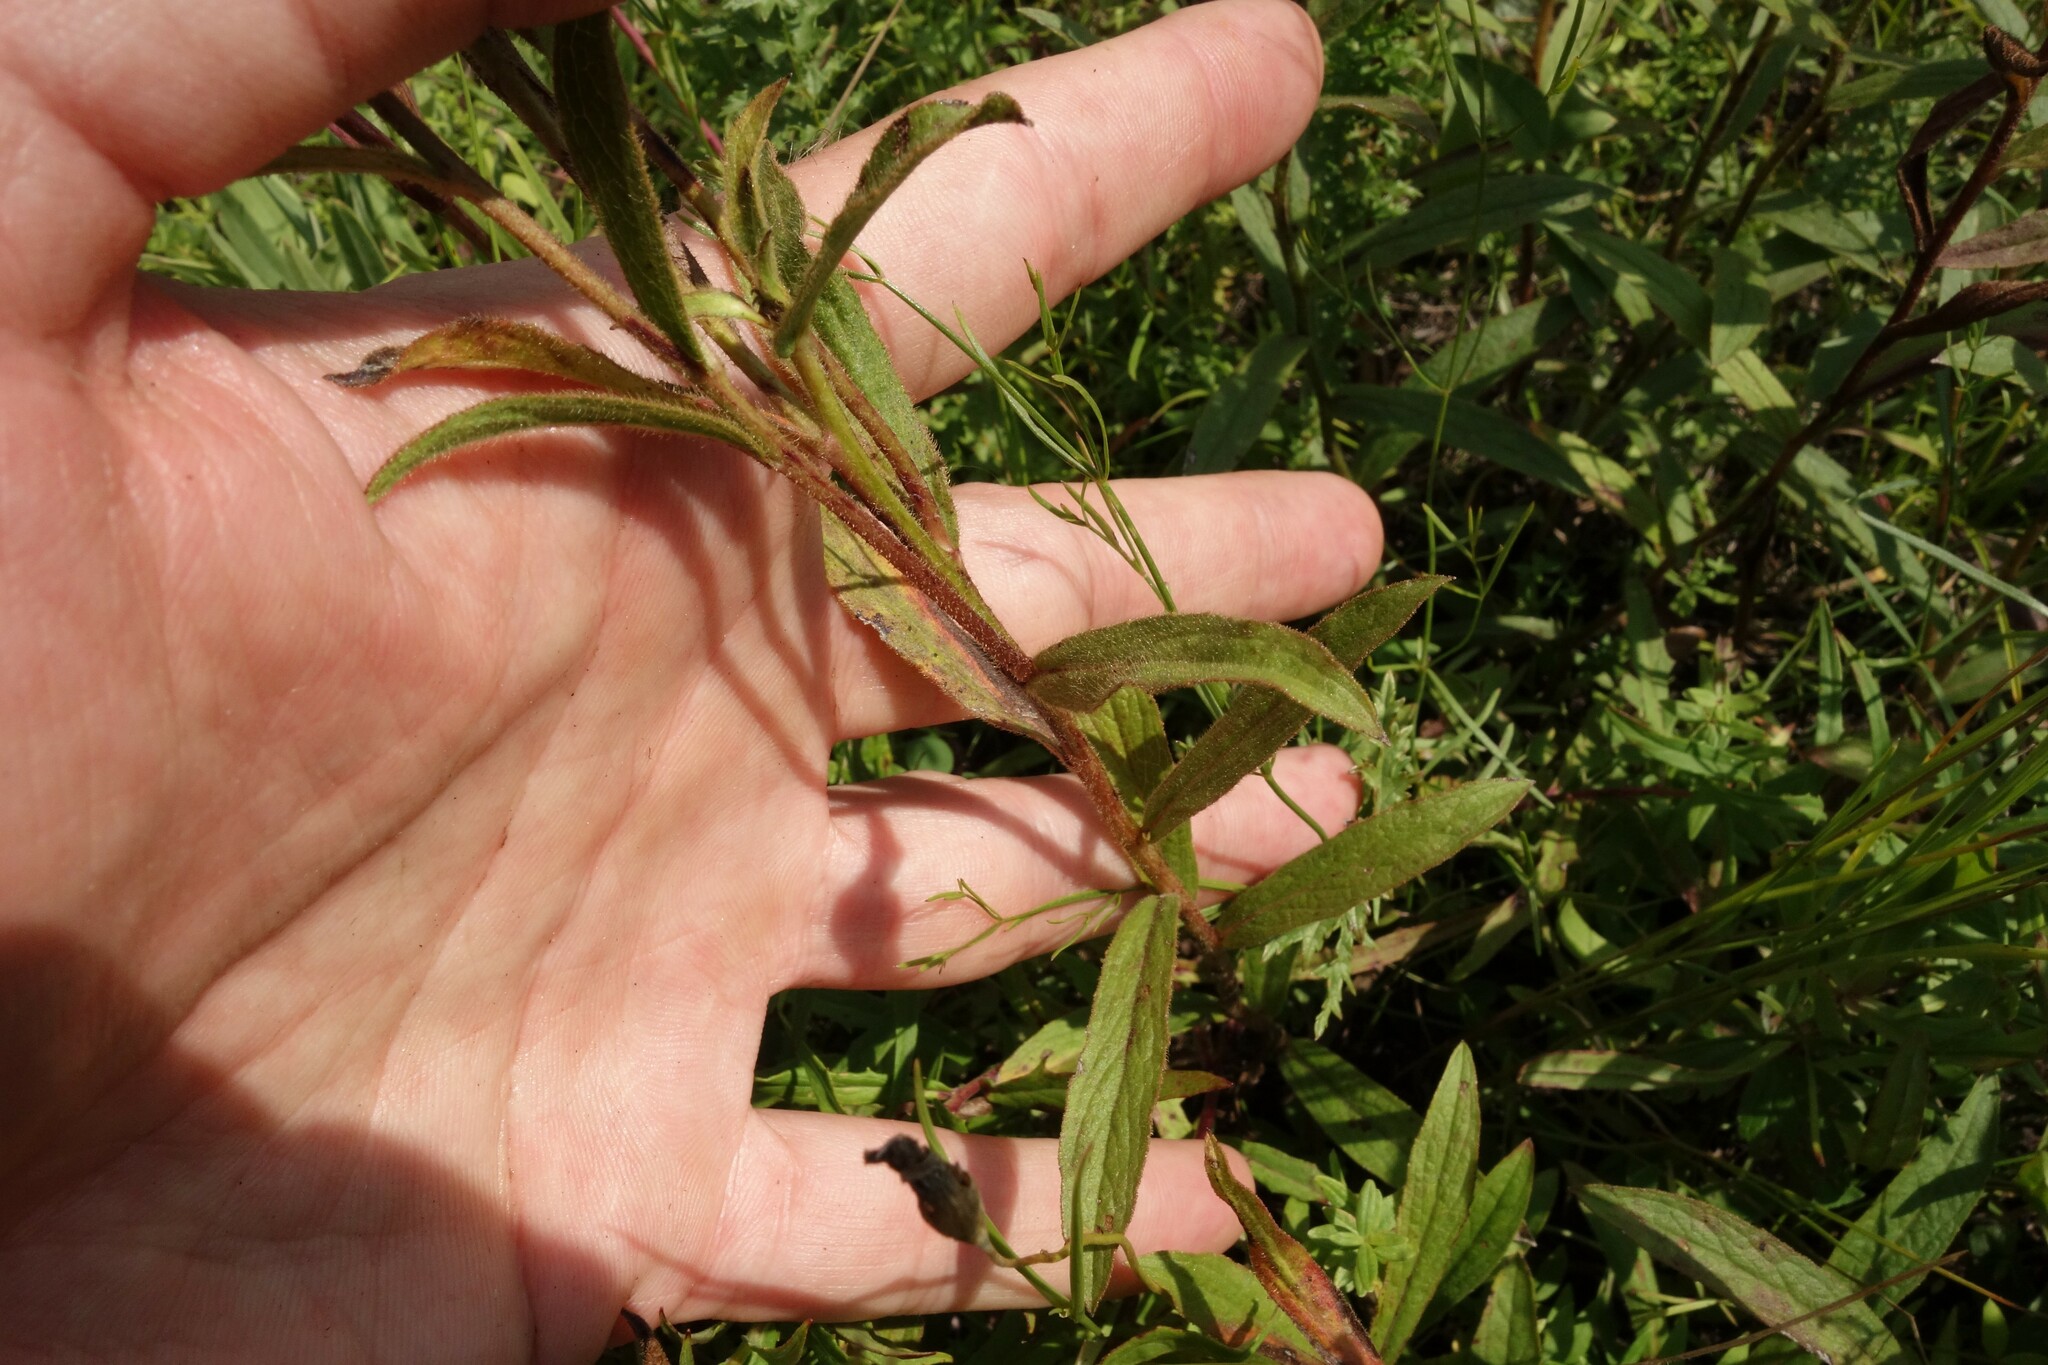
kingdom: Plantae
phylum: Tracheophyta
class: Magnoliopsida
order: Asterales
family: Asteraceae
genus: Pentanema
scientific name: Pentanema hirtum
